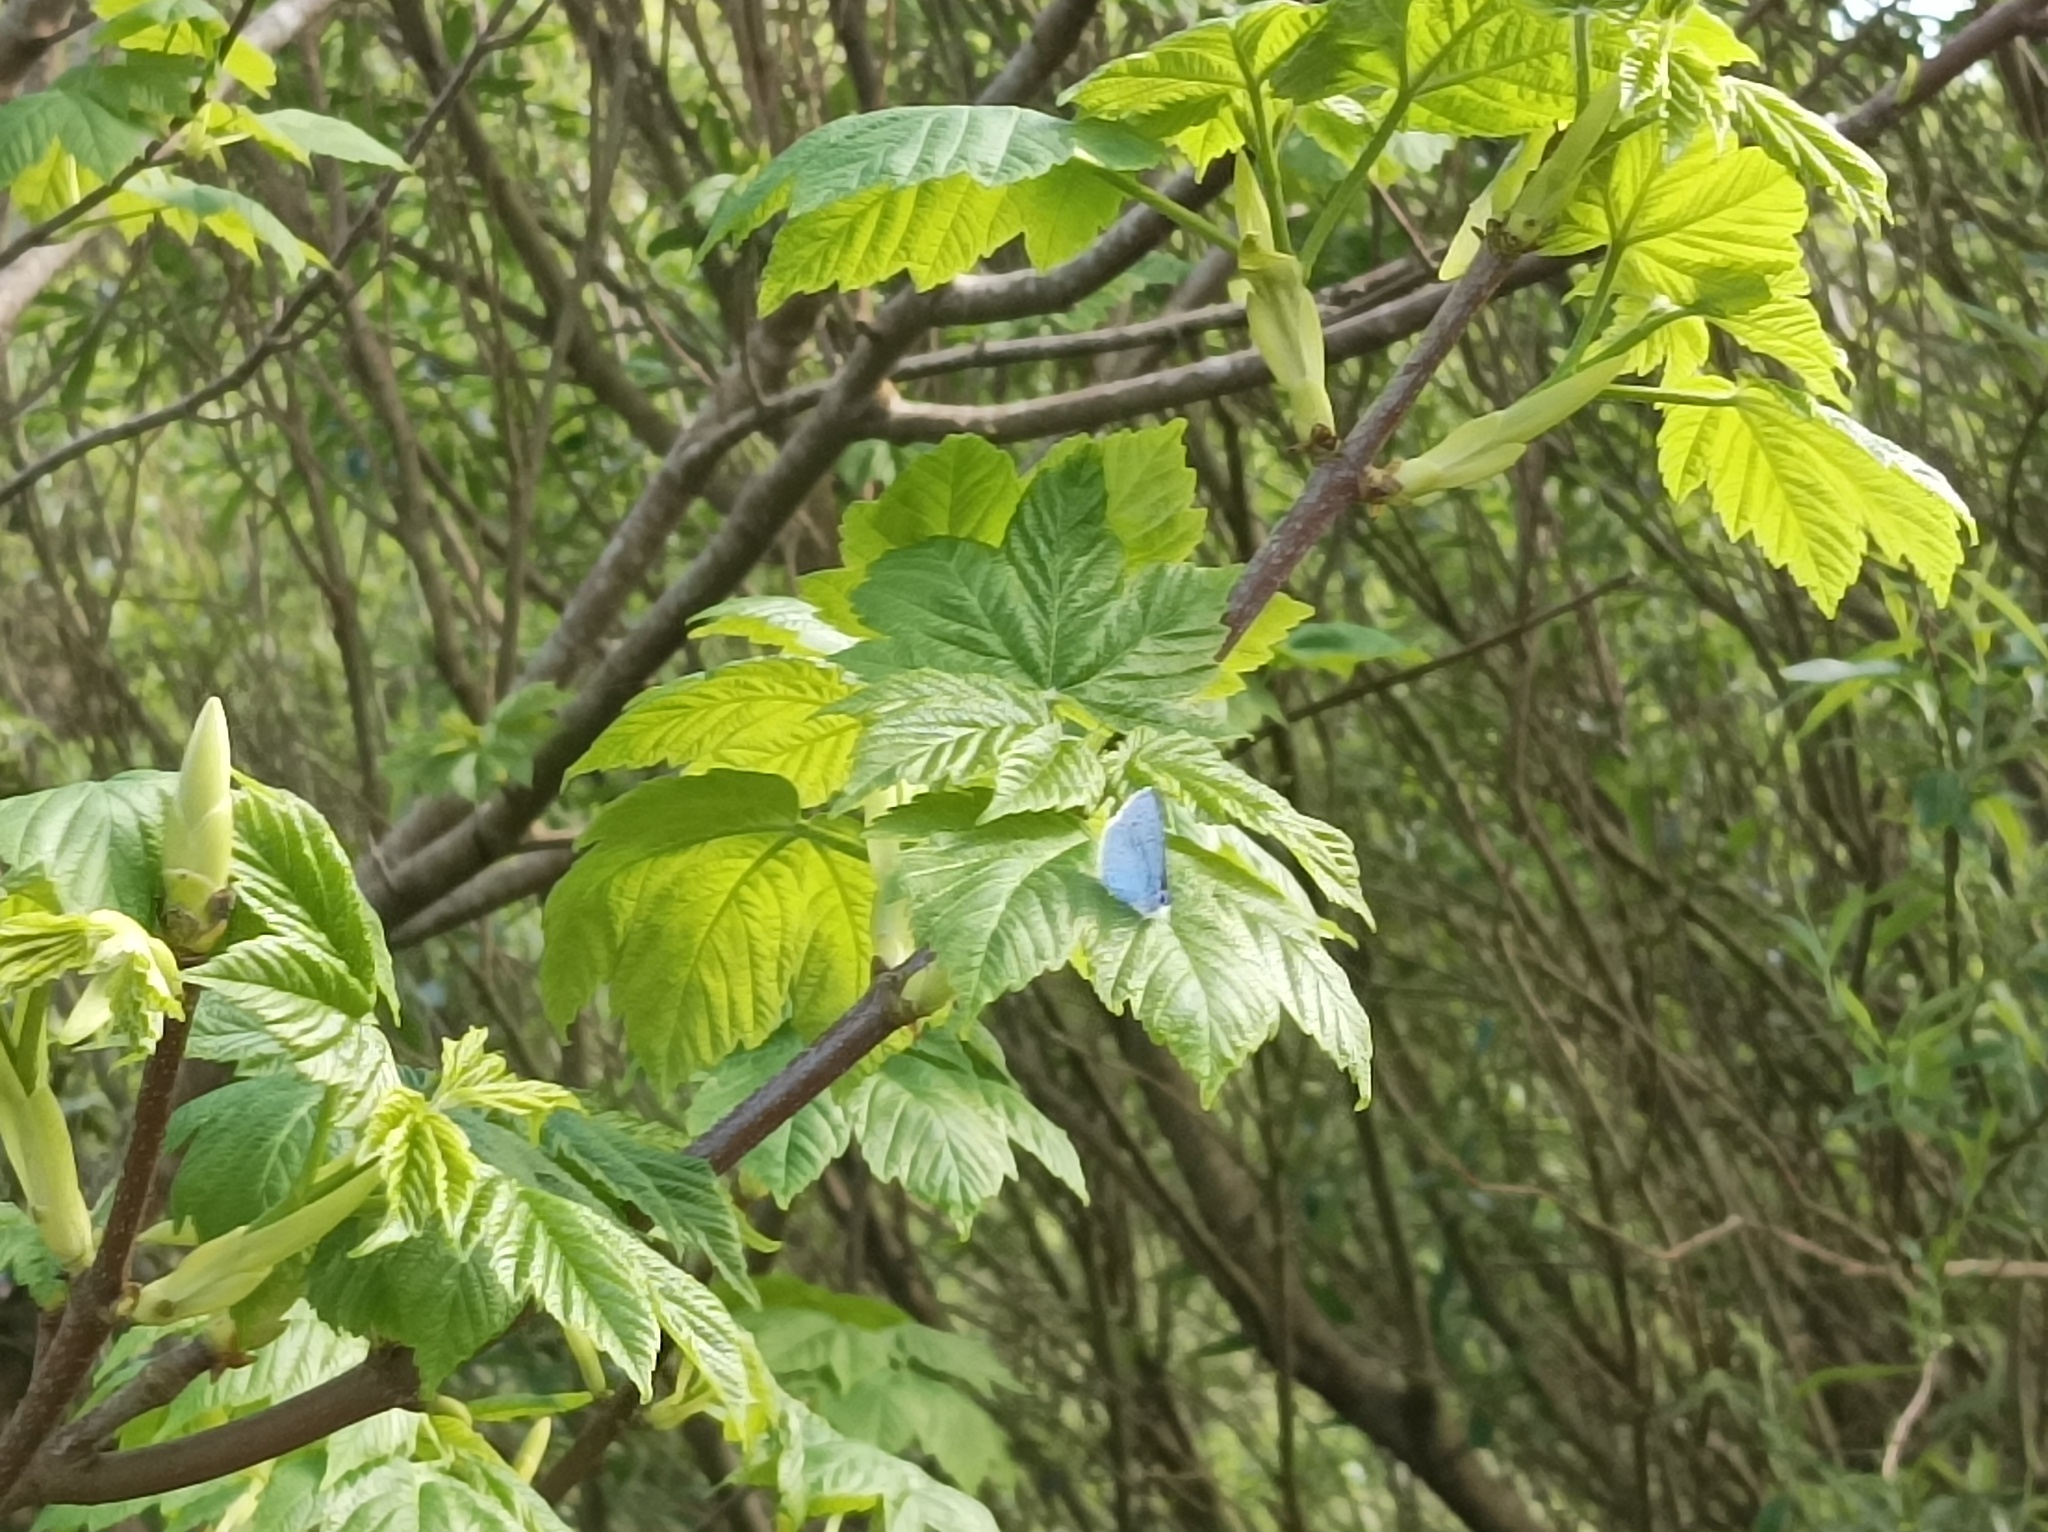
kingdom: Animalia
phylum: Arthropoda
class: Insecta
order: Lepidoptera
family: Lycaenidae
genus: Celastrina
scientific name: Celastrina argiolus
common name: Holly blue
